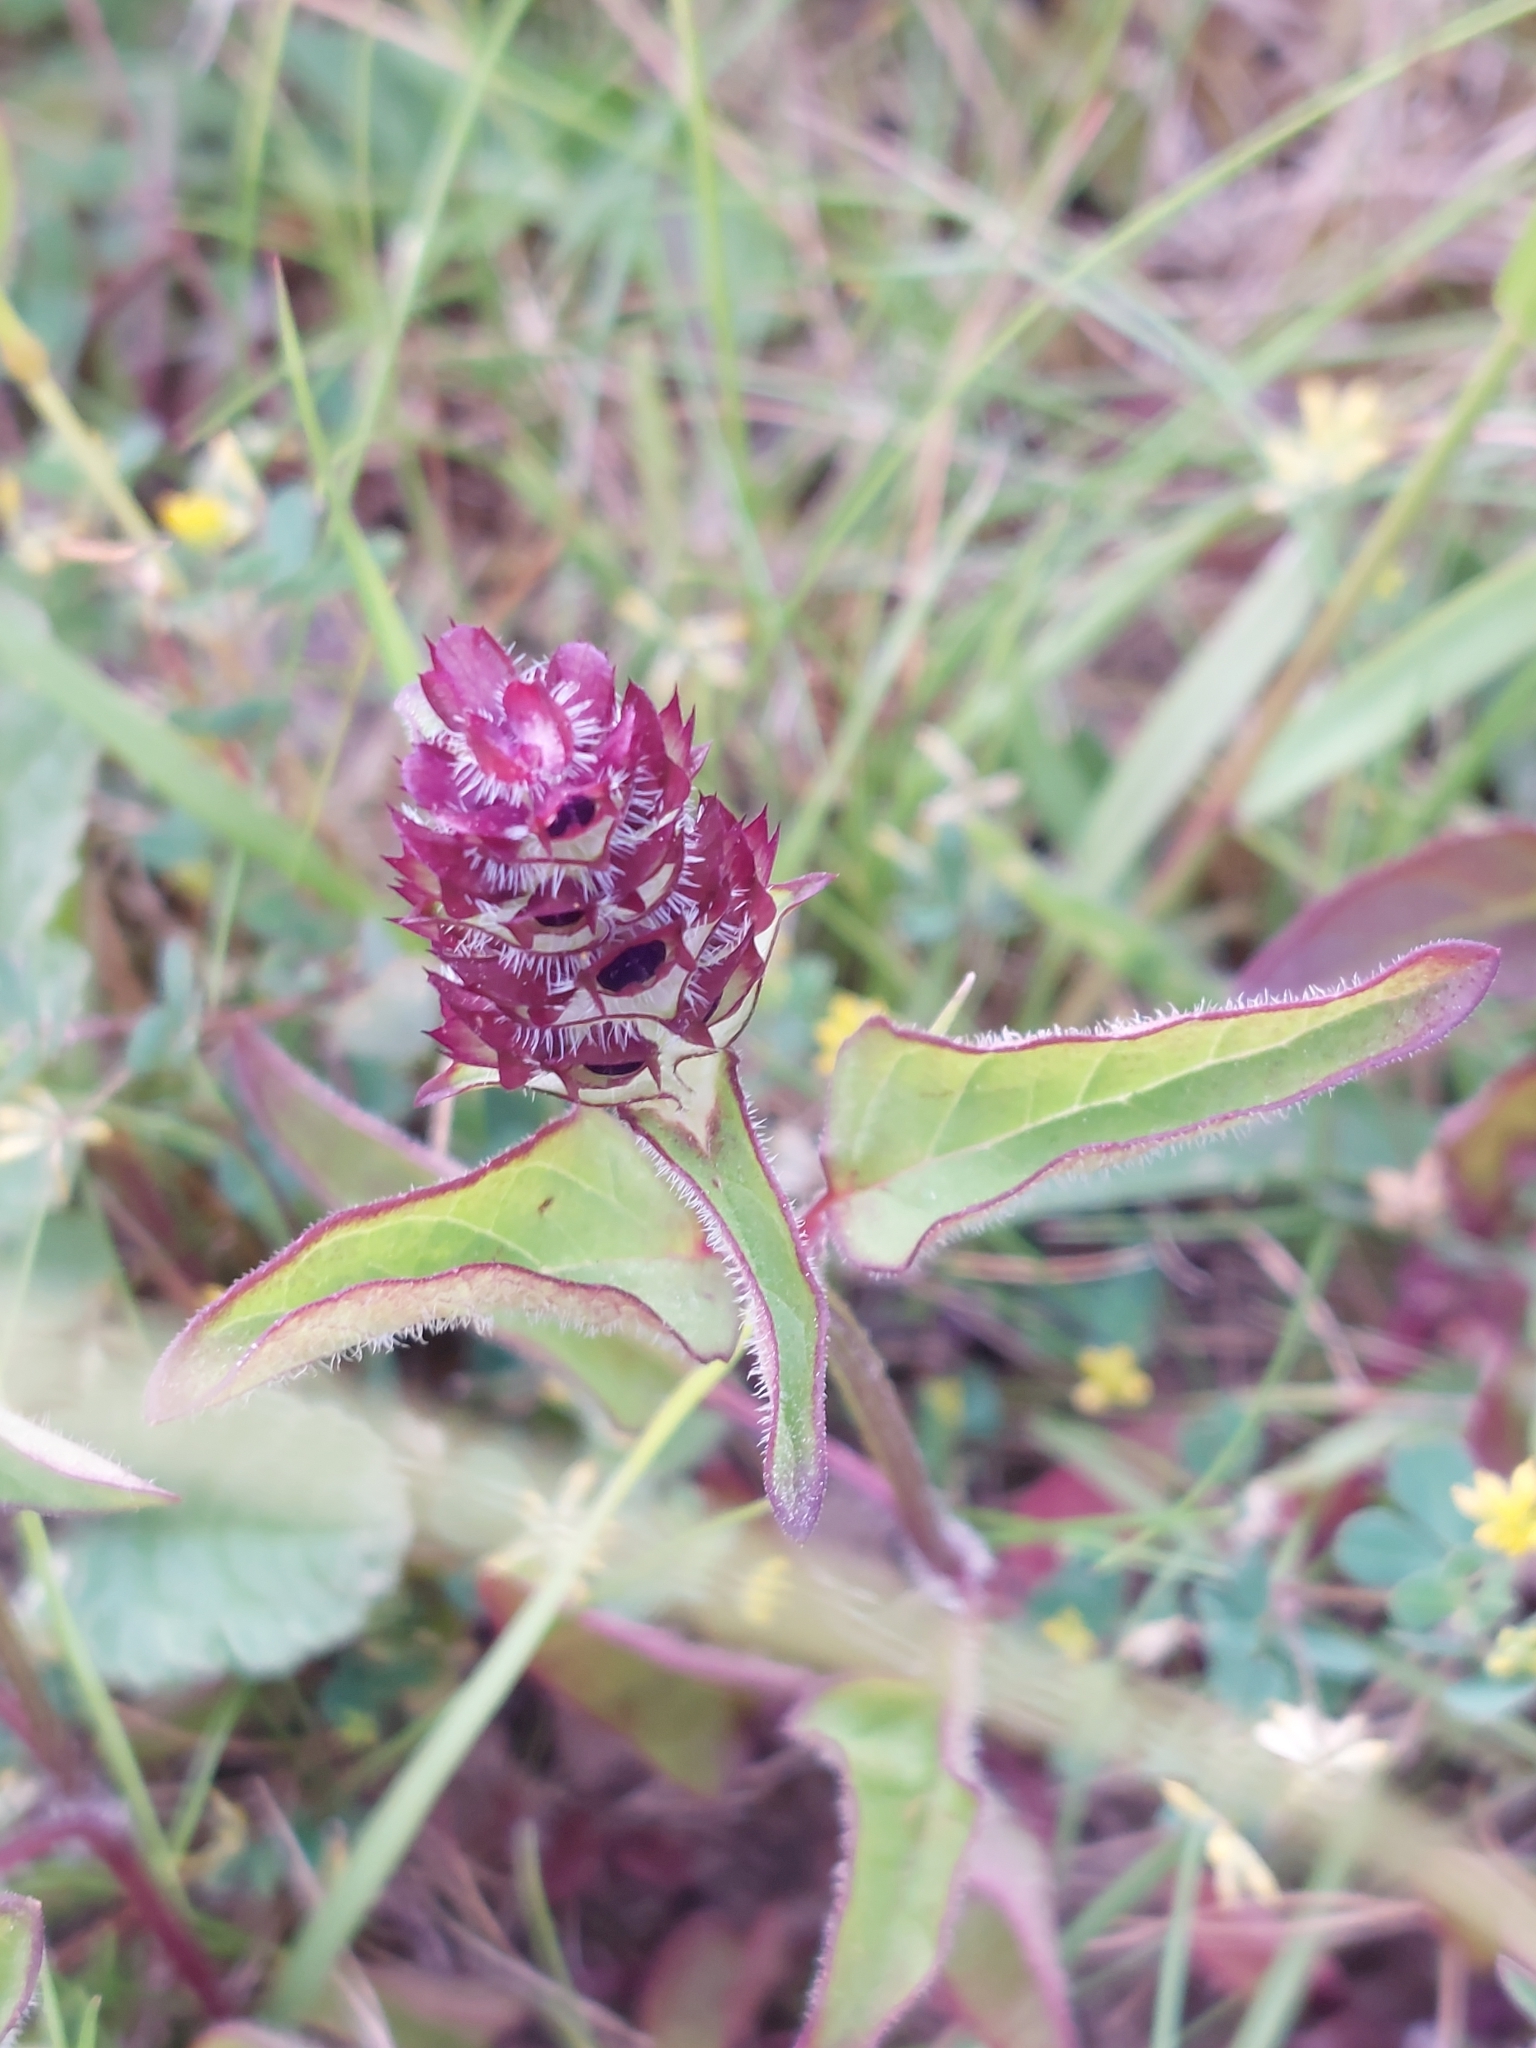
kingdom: Plantae
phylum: Tracheophyta
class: Magnoliopsida
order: Lamiales
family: Lamiaceae
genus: Prunella
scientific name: Prunella vulgaris
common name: Heal-all
